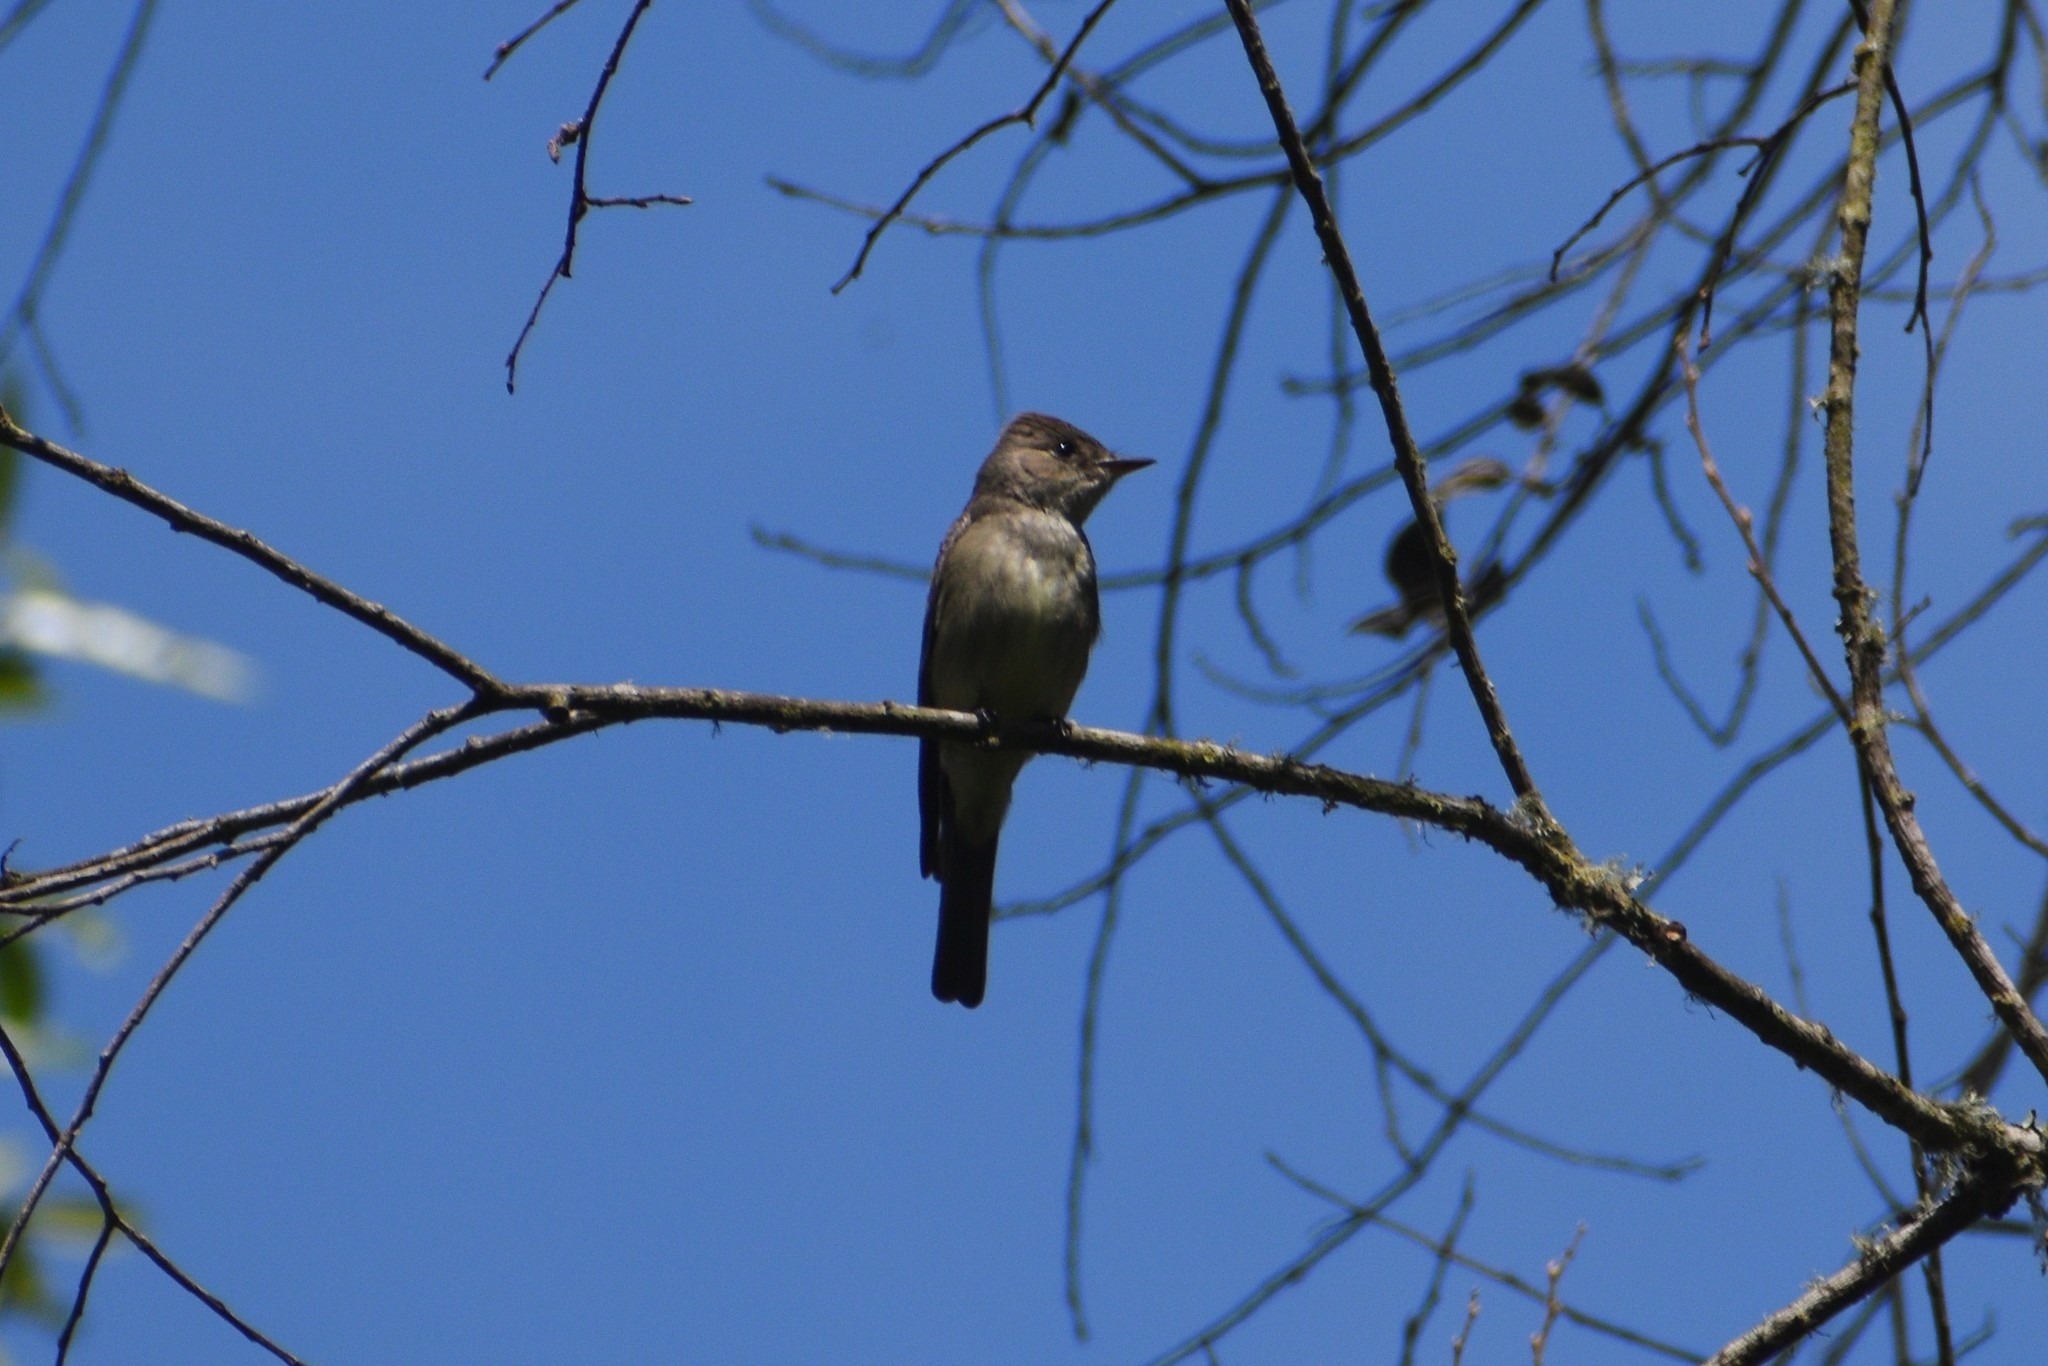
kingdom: Animalia
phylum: Chordata
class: Aves
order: Passeriformes
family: Tyrannidae
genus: Contopus
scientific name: Contopus sordidulus
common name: Western wood-pewee
